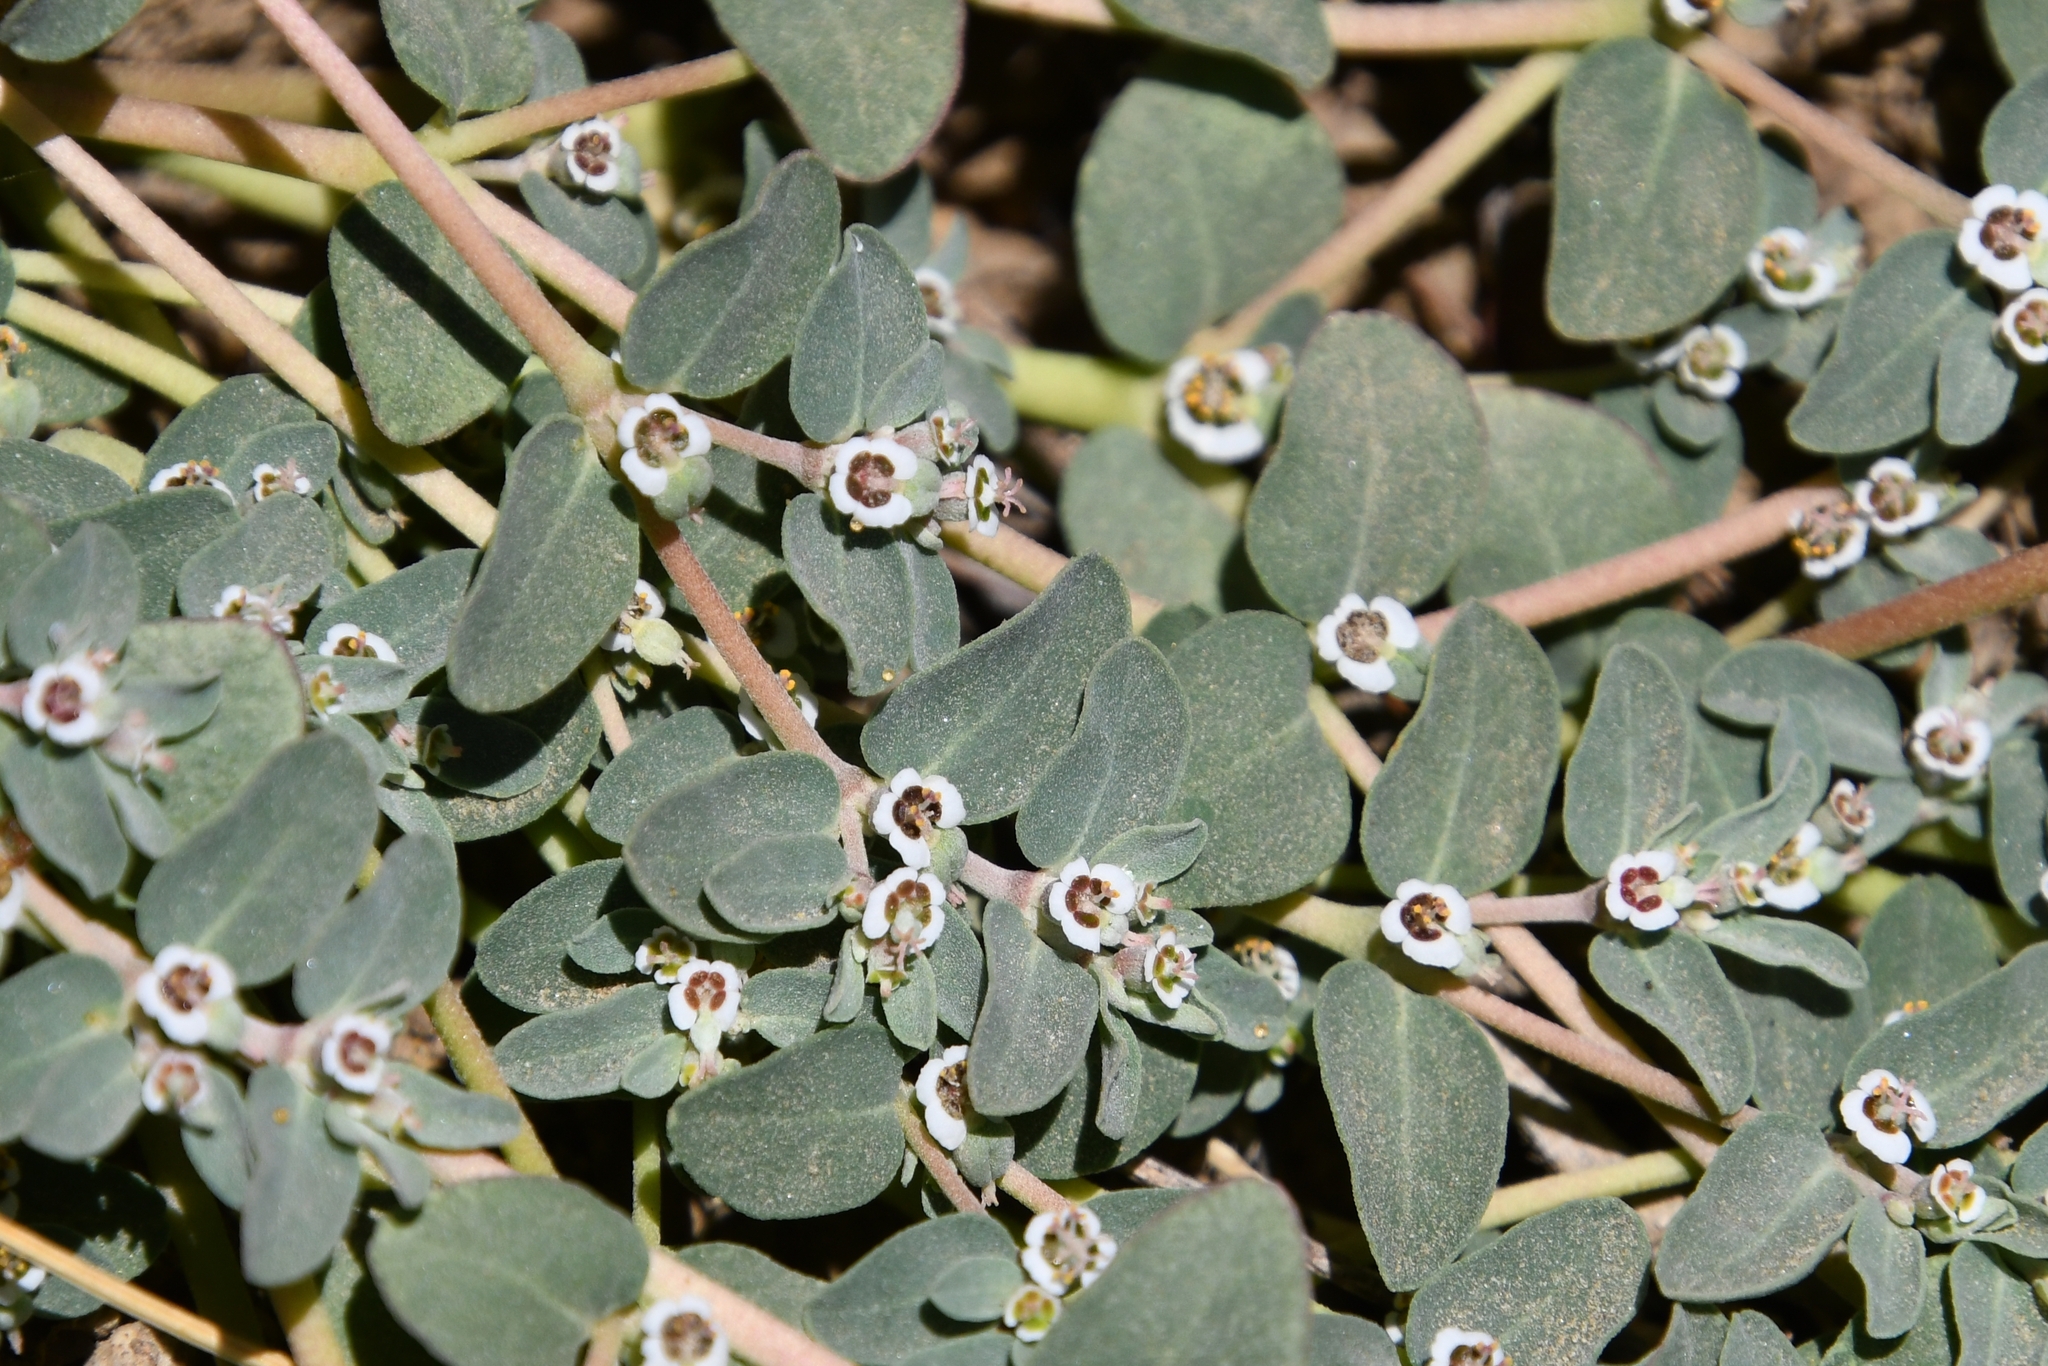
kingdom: Plantae
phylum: Tracheophyta
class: Magnoliopsida
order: Malpighiales
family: Euphorbiaceae
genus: Euphorbia
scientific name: Euphorbia pediculifera
